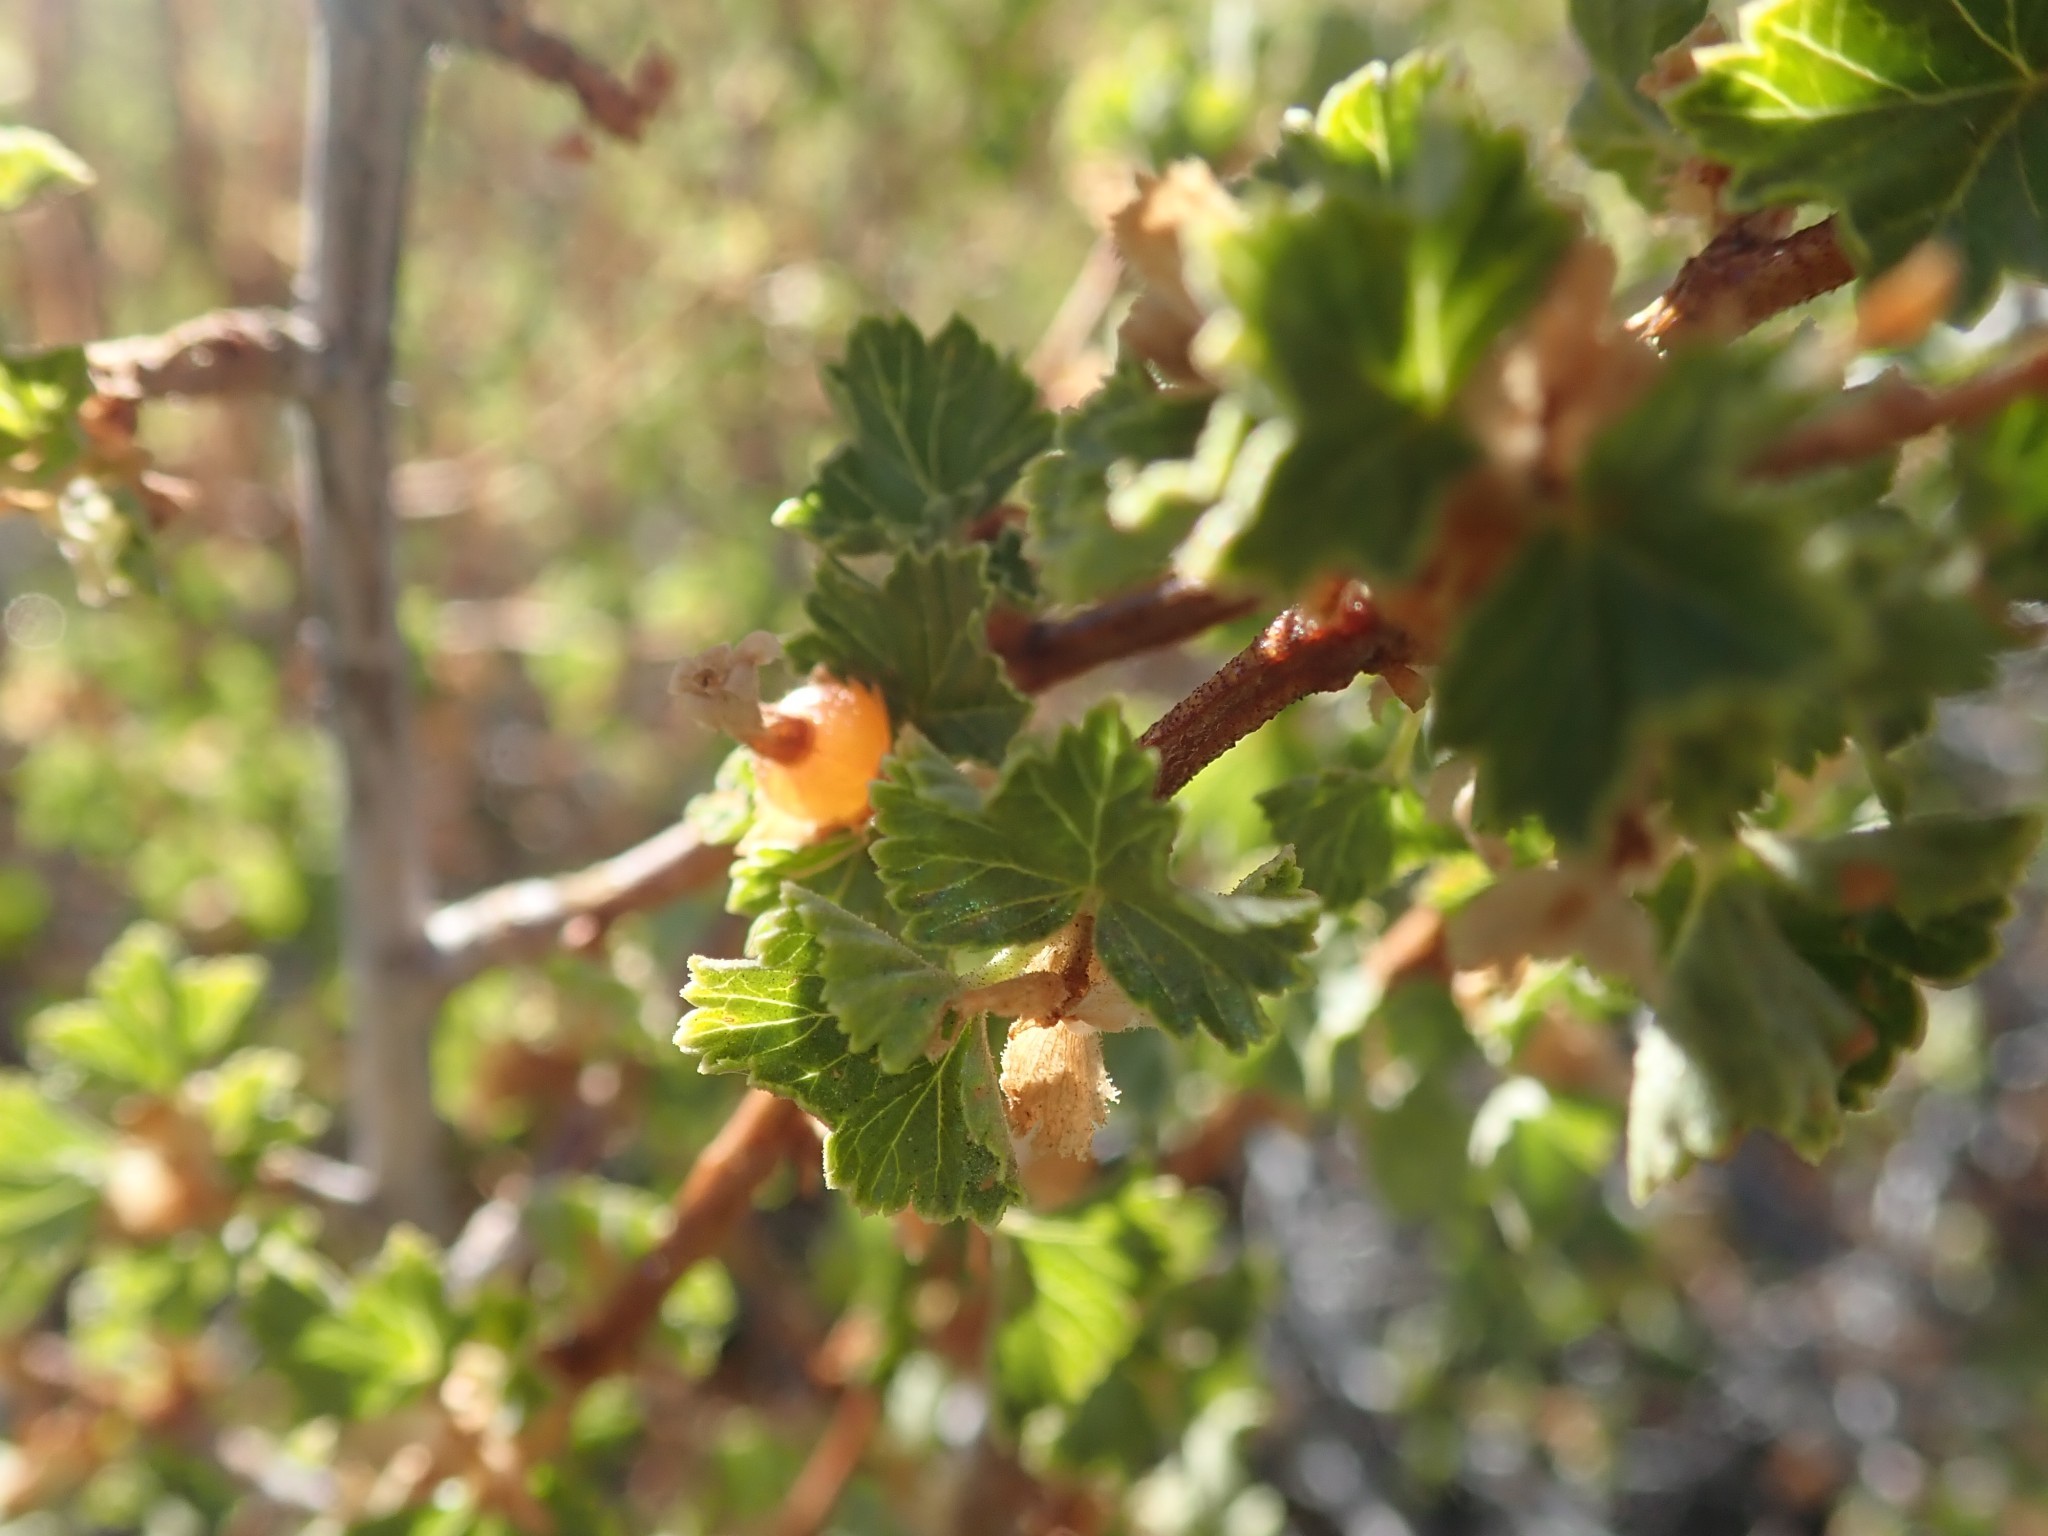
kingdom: Plantae
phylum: Tracheophyta
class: Magnoliopsida
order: Saxifragales
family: Grossulariaceae
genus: Ribes
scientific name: Ribes cereum
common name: Wax currant
